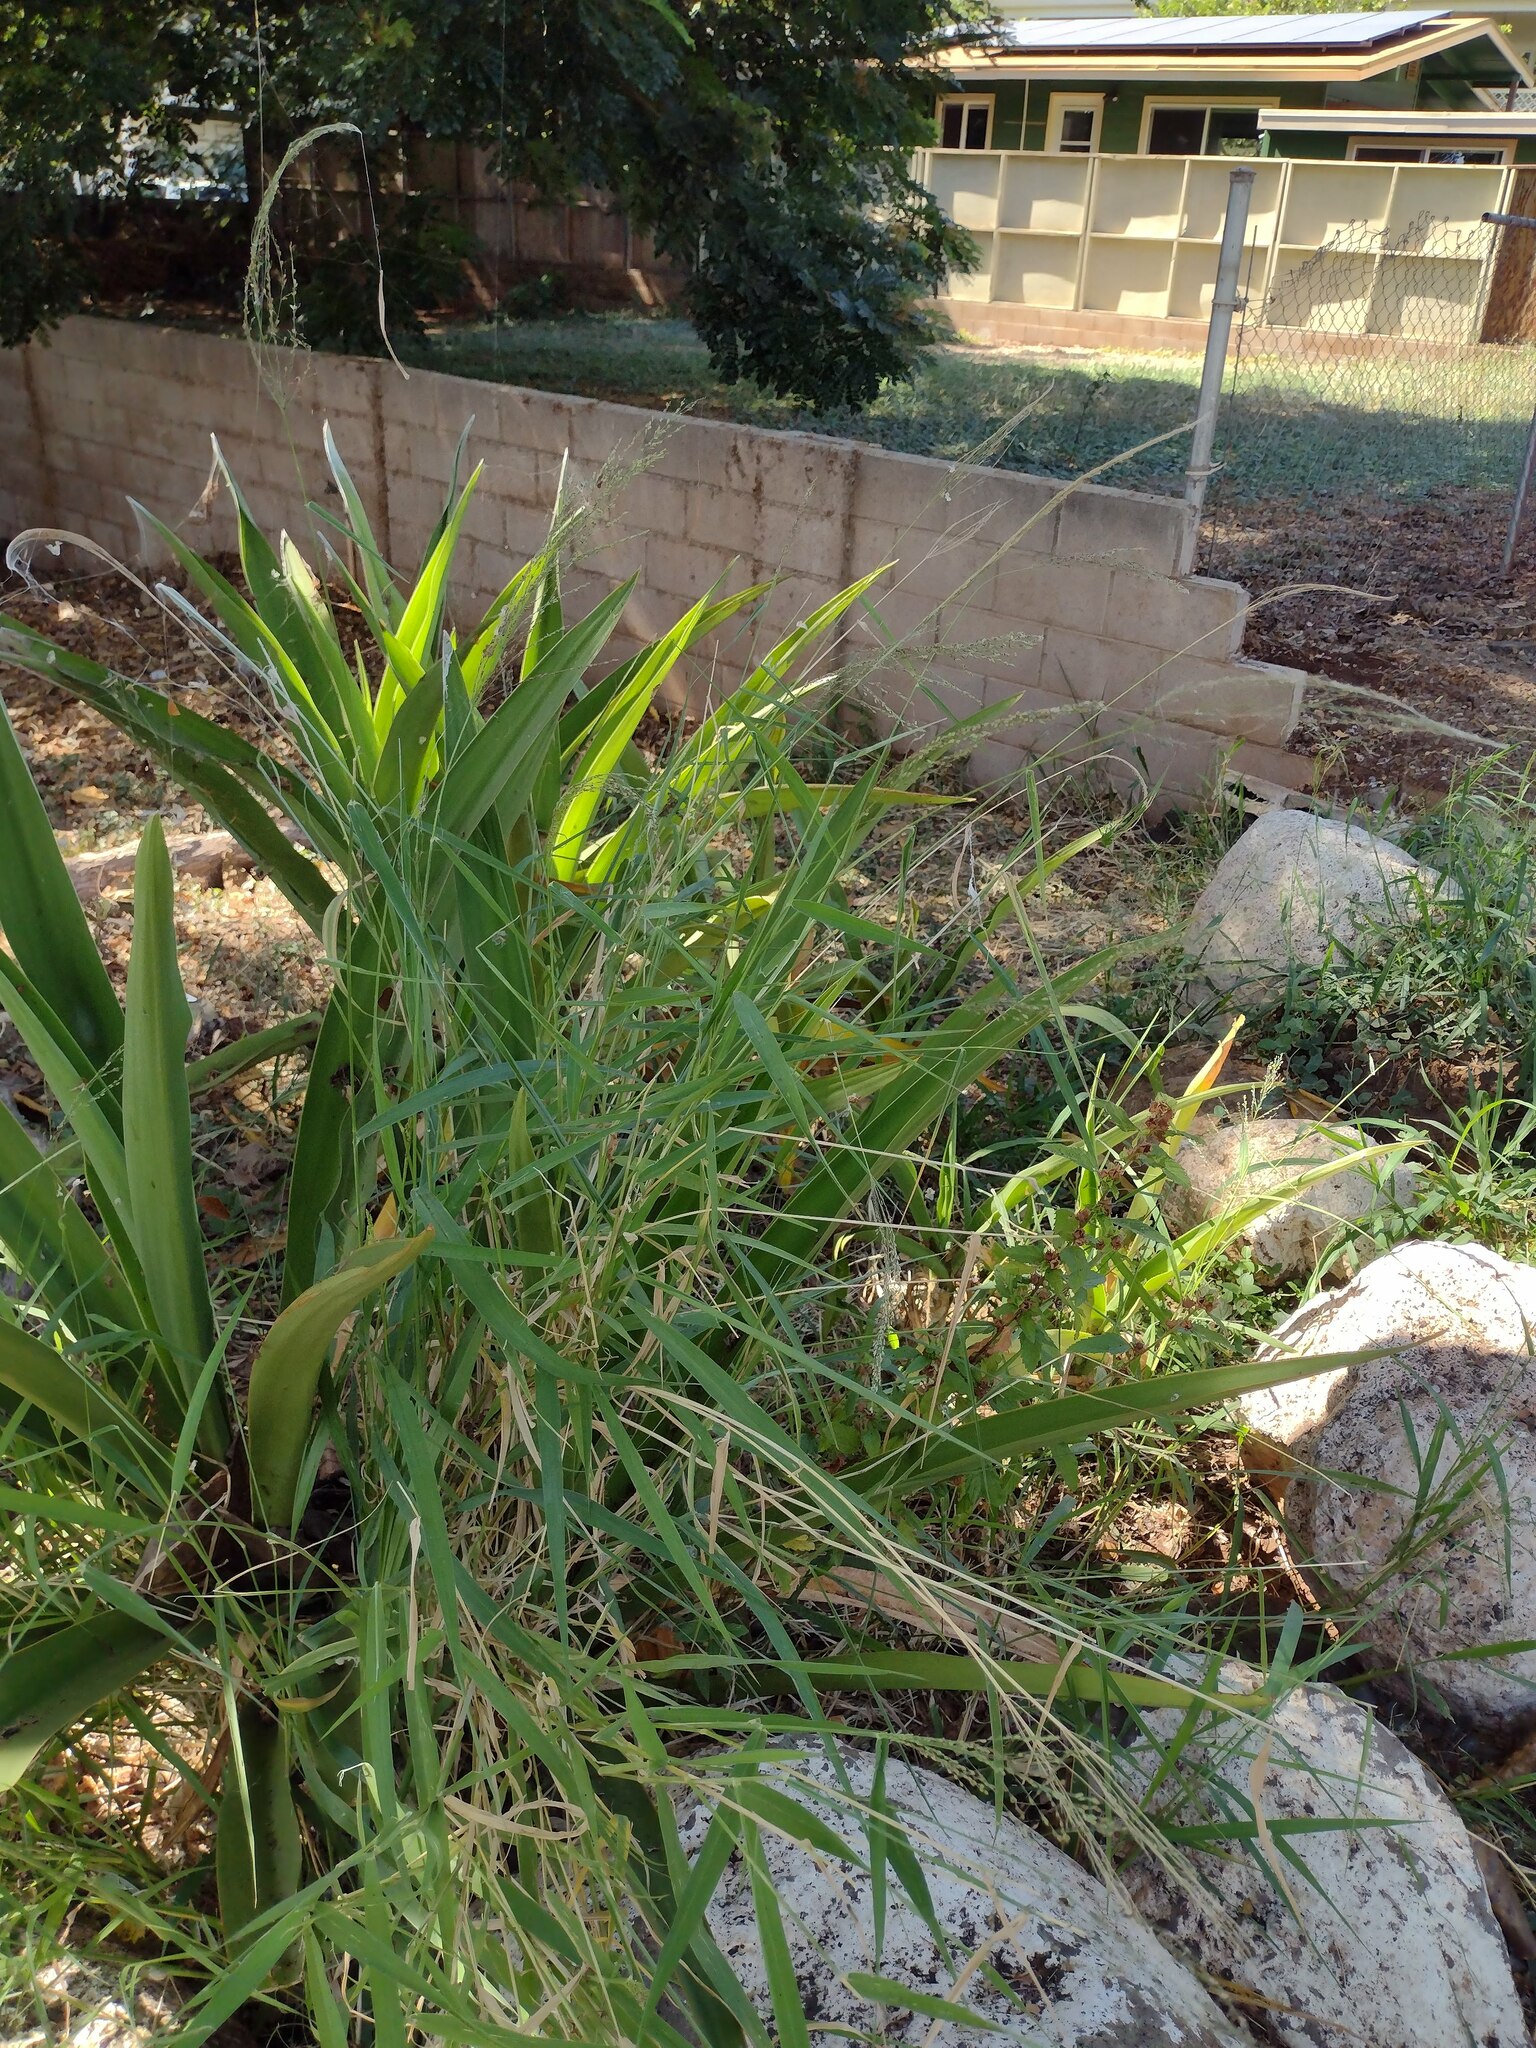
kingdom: Plantae
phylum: Tracheophyta
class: Liliopsida
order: Poales
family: Poaceae
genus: Megathyrsus
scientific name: Megathyrsus maximus
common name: Guineagrass
